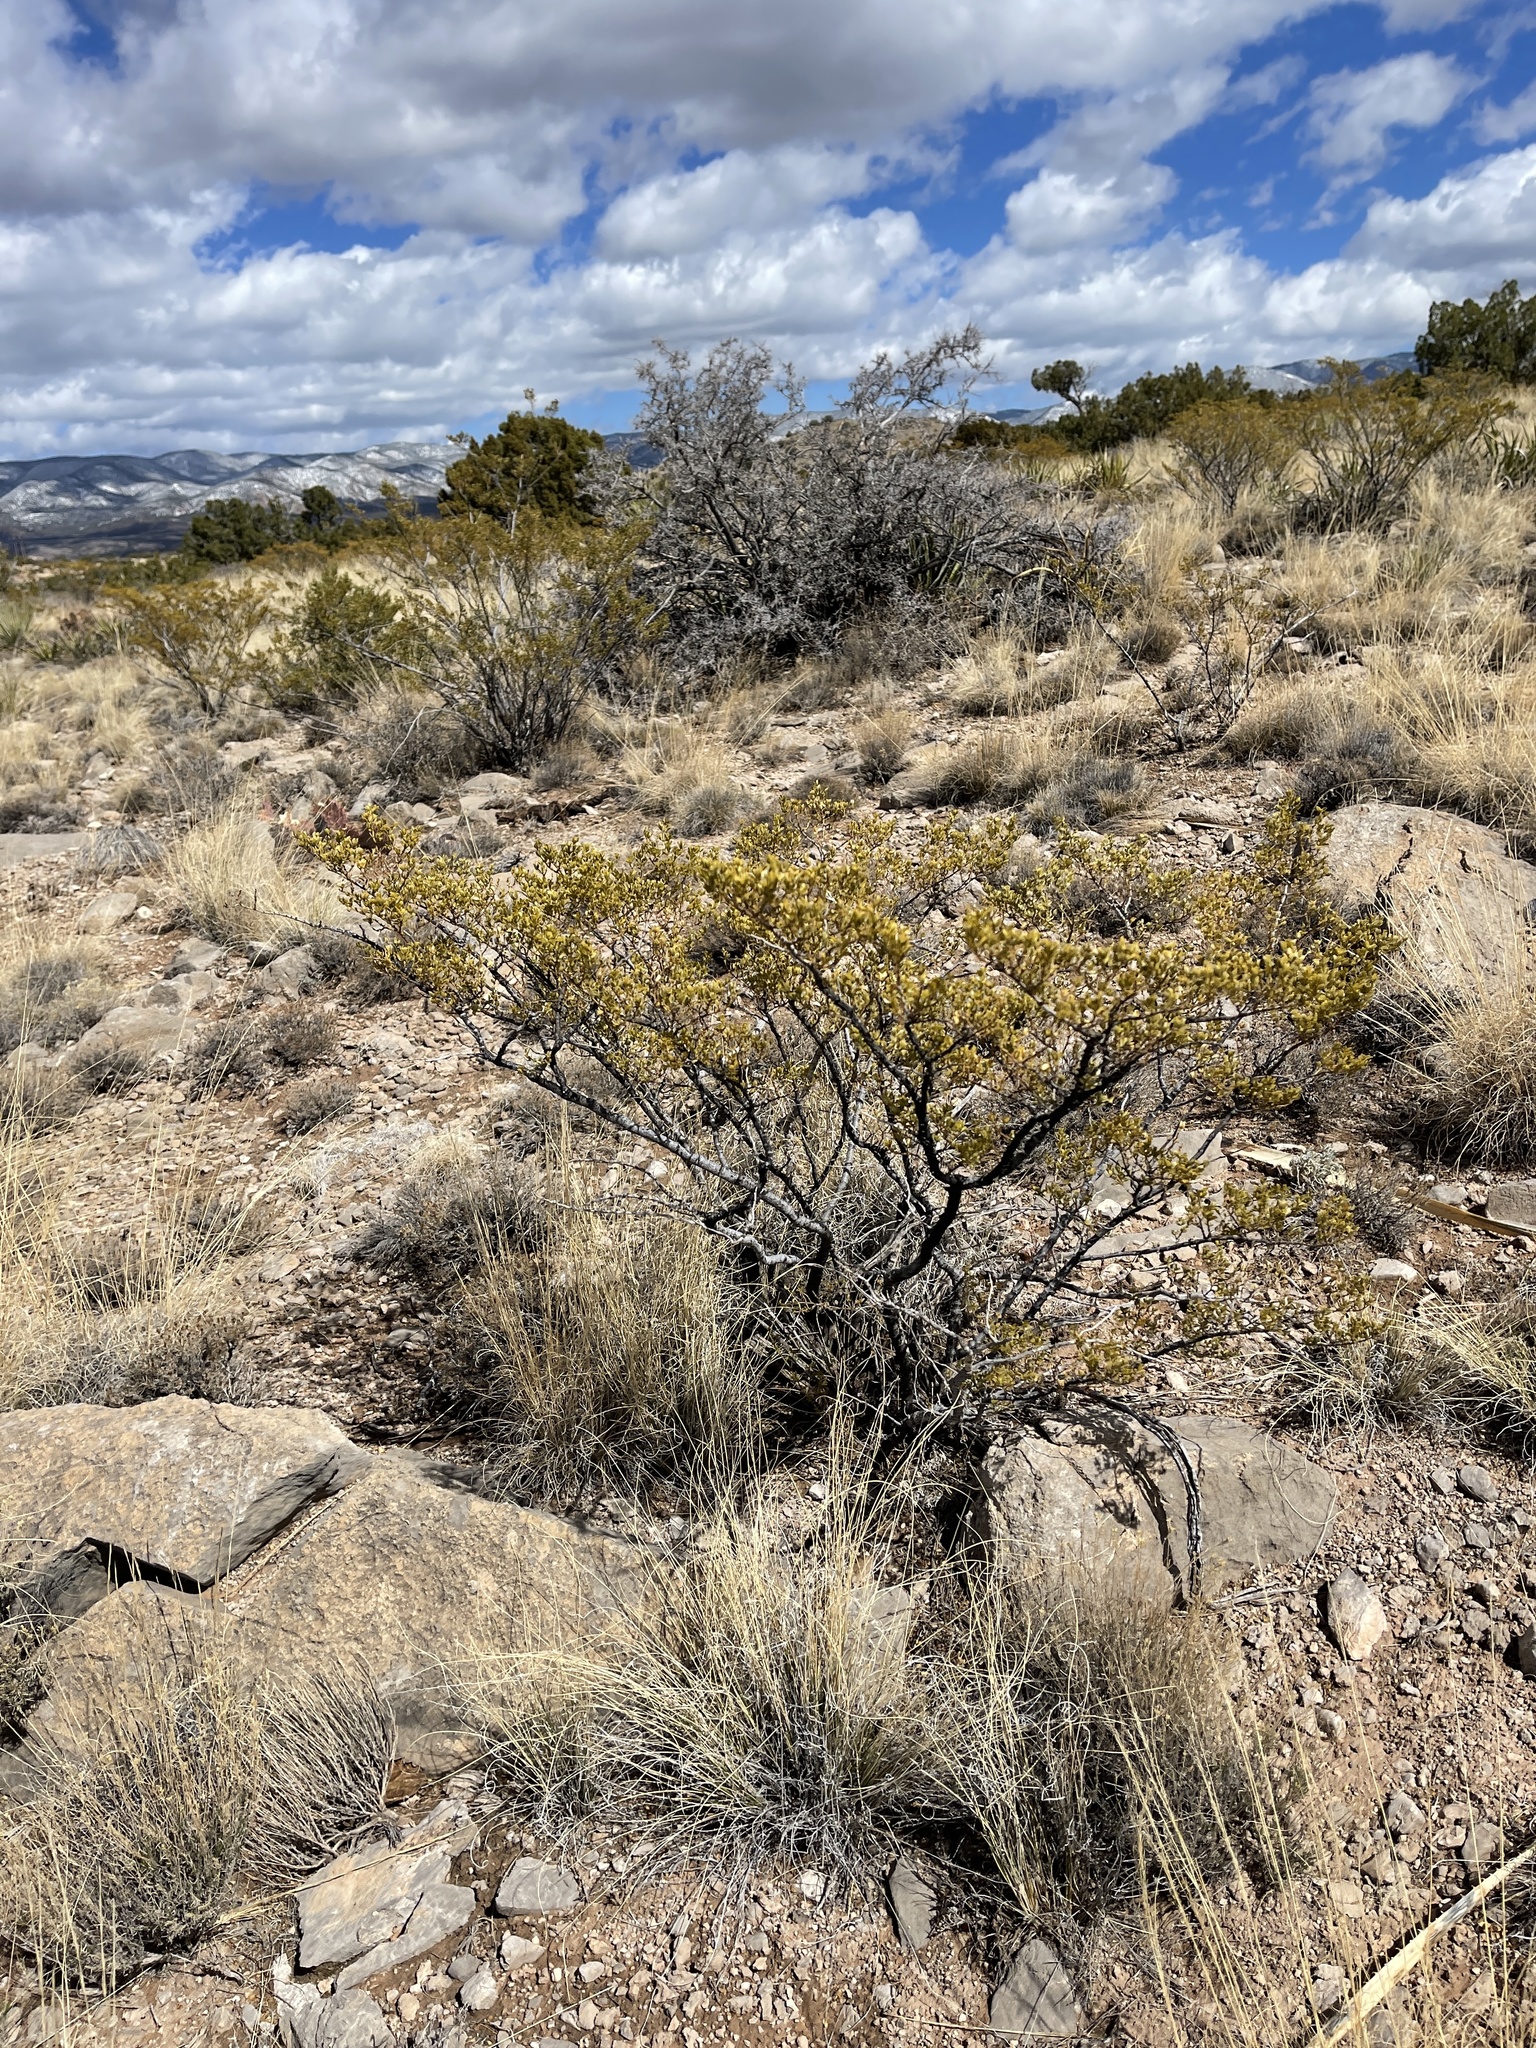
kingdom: Plantae
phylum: Tracheophyta
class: Magnoliopsida
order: Zygophyllales
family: Zygophyllaceae
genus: Larrea
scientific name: Larrea tridentata
